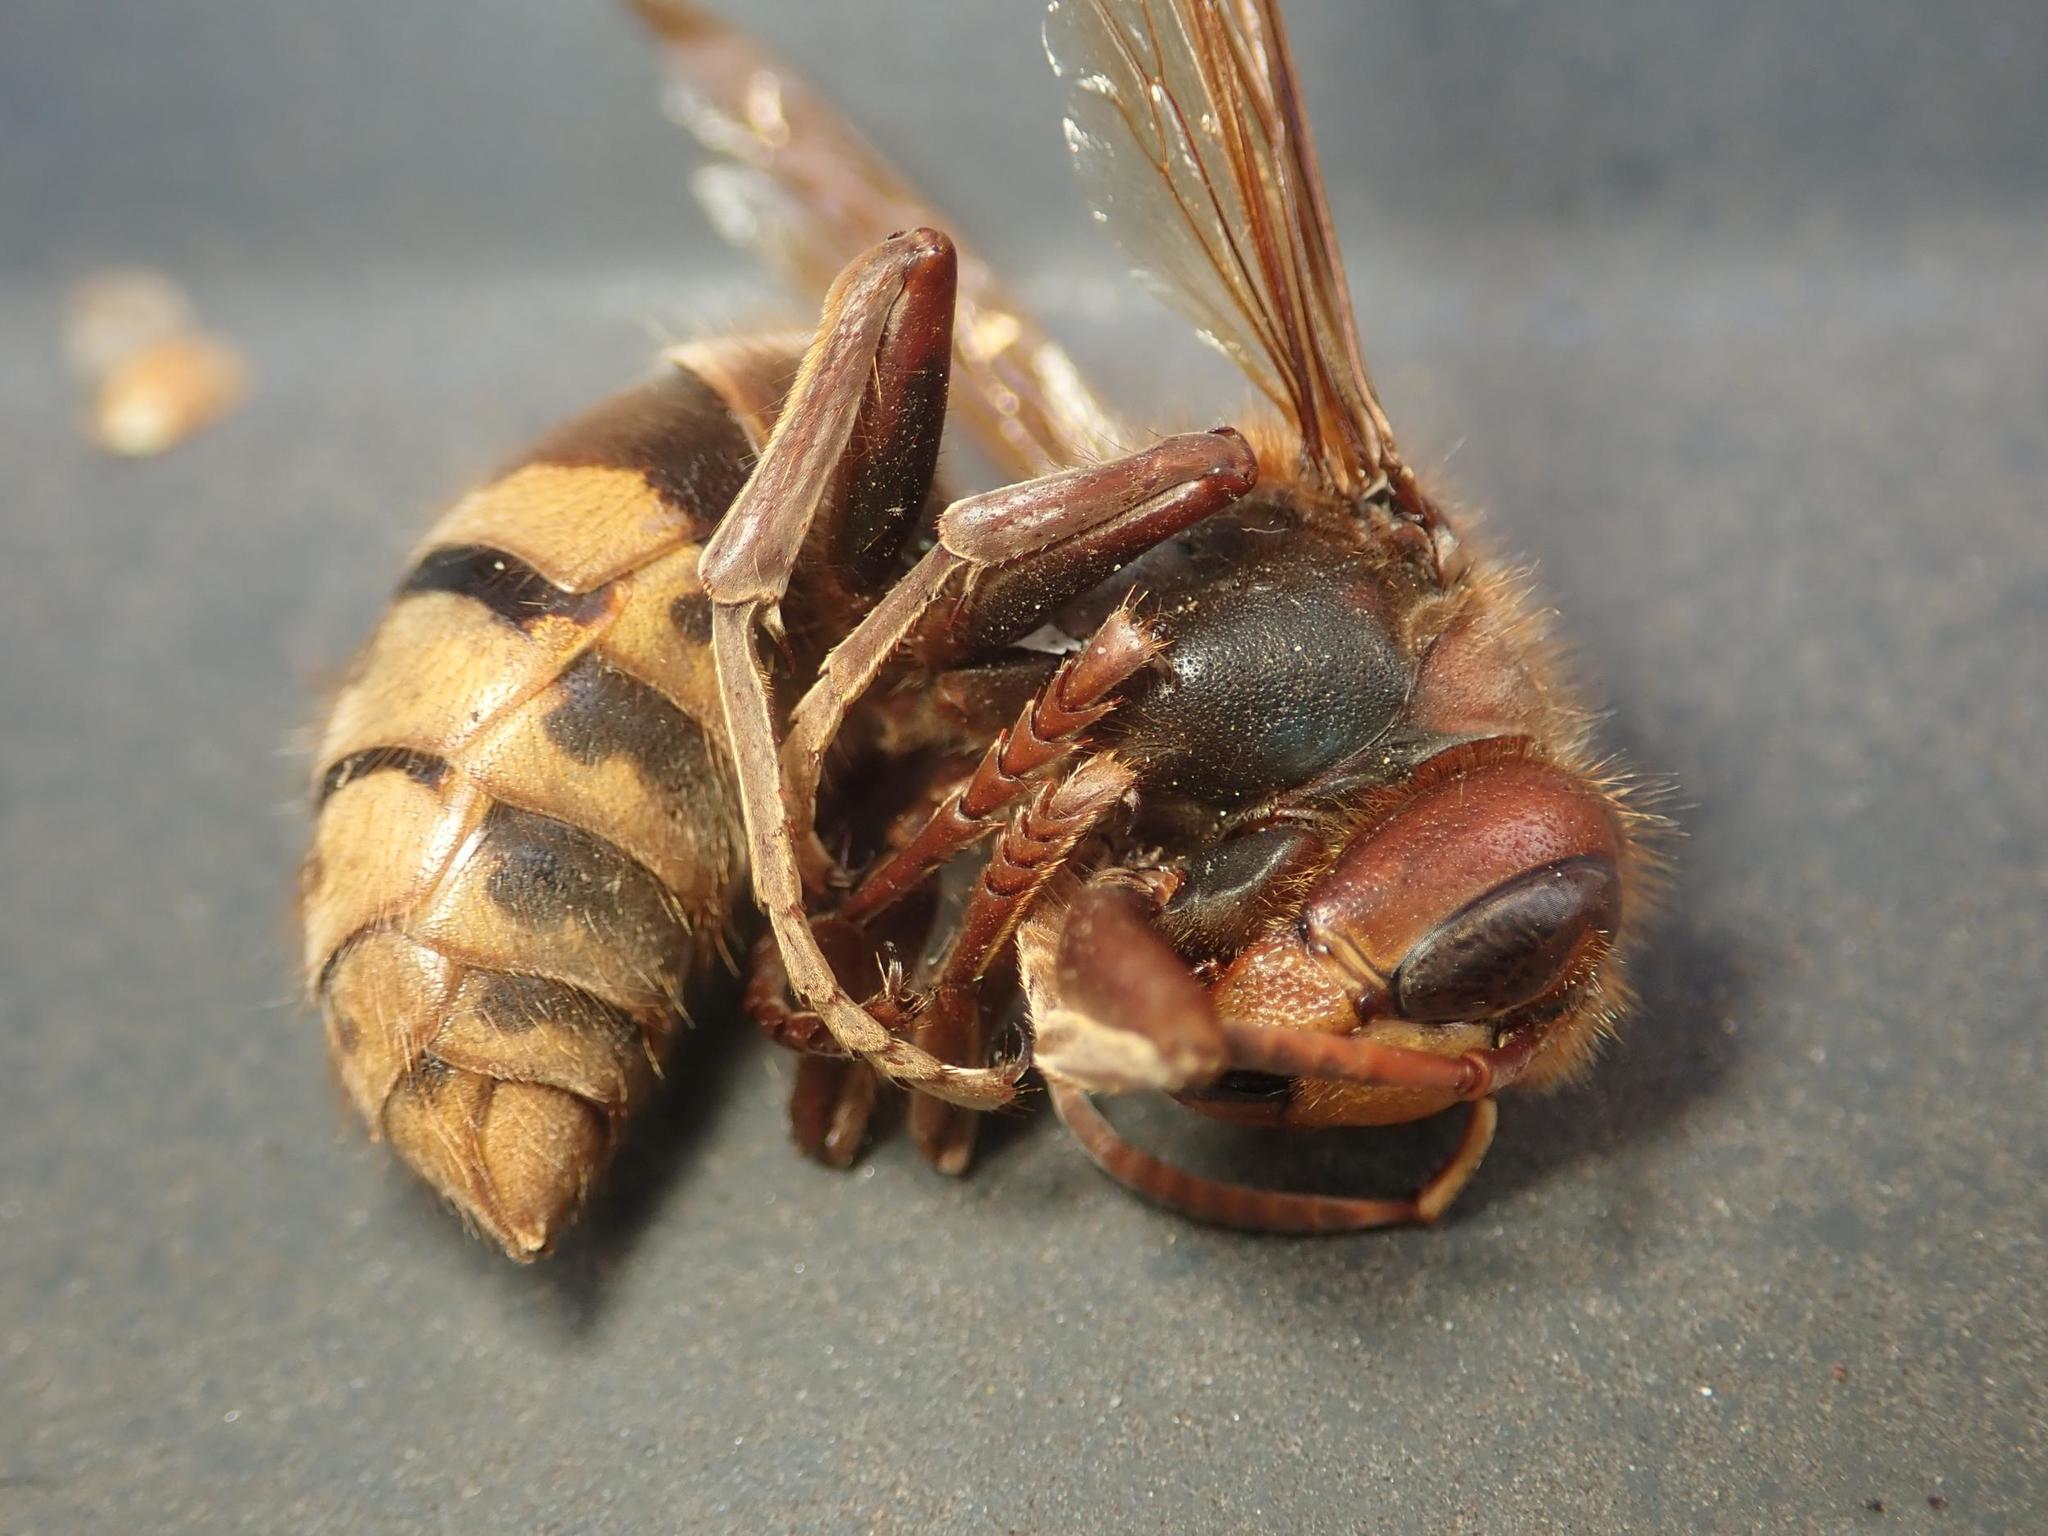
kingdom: Animalia
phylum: Arthropoda
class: Insecta
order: Hymenoptera
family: Vespidae
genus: Vespa
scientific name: Vespa crabro
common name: Hornet
